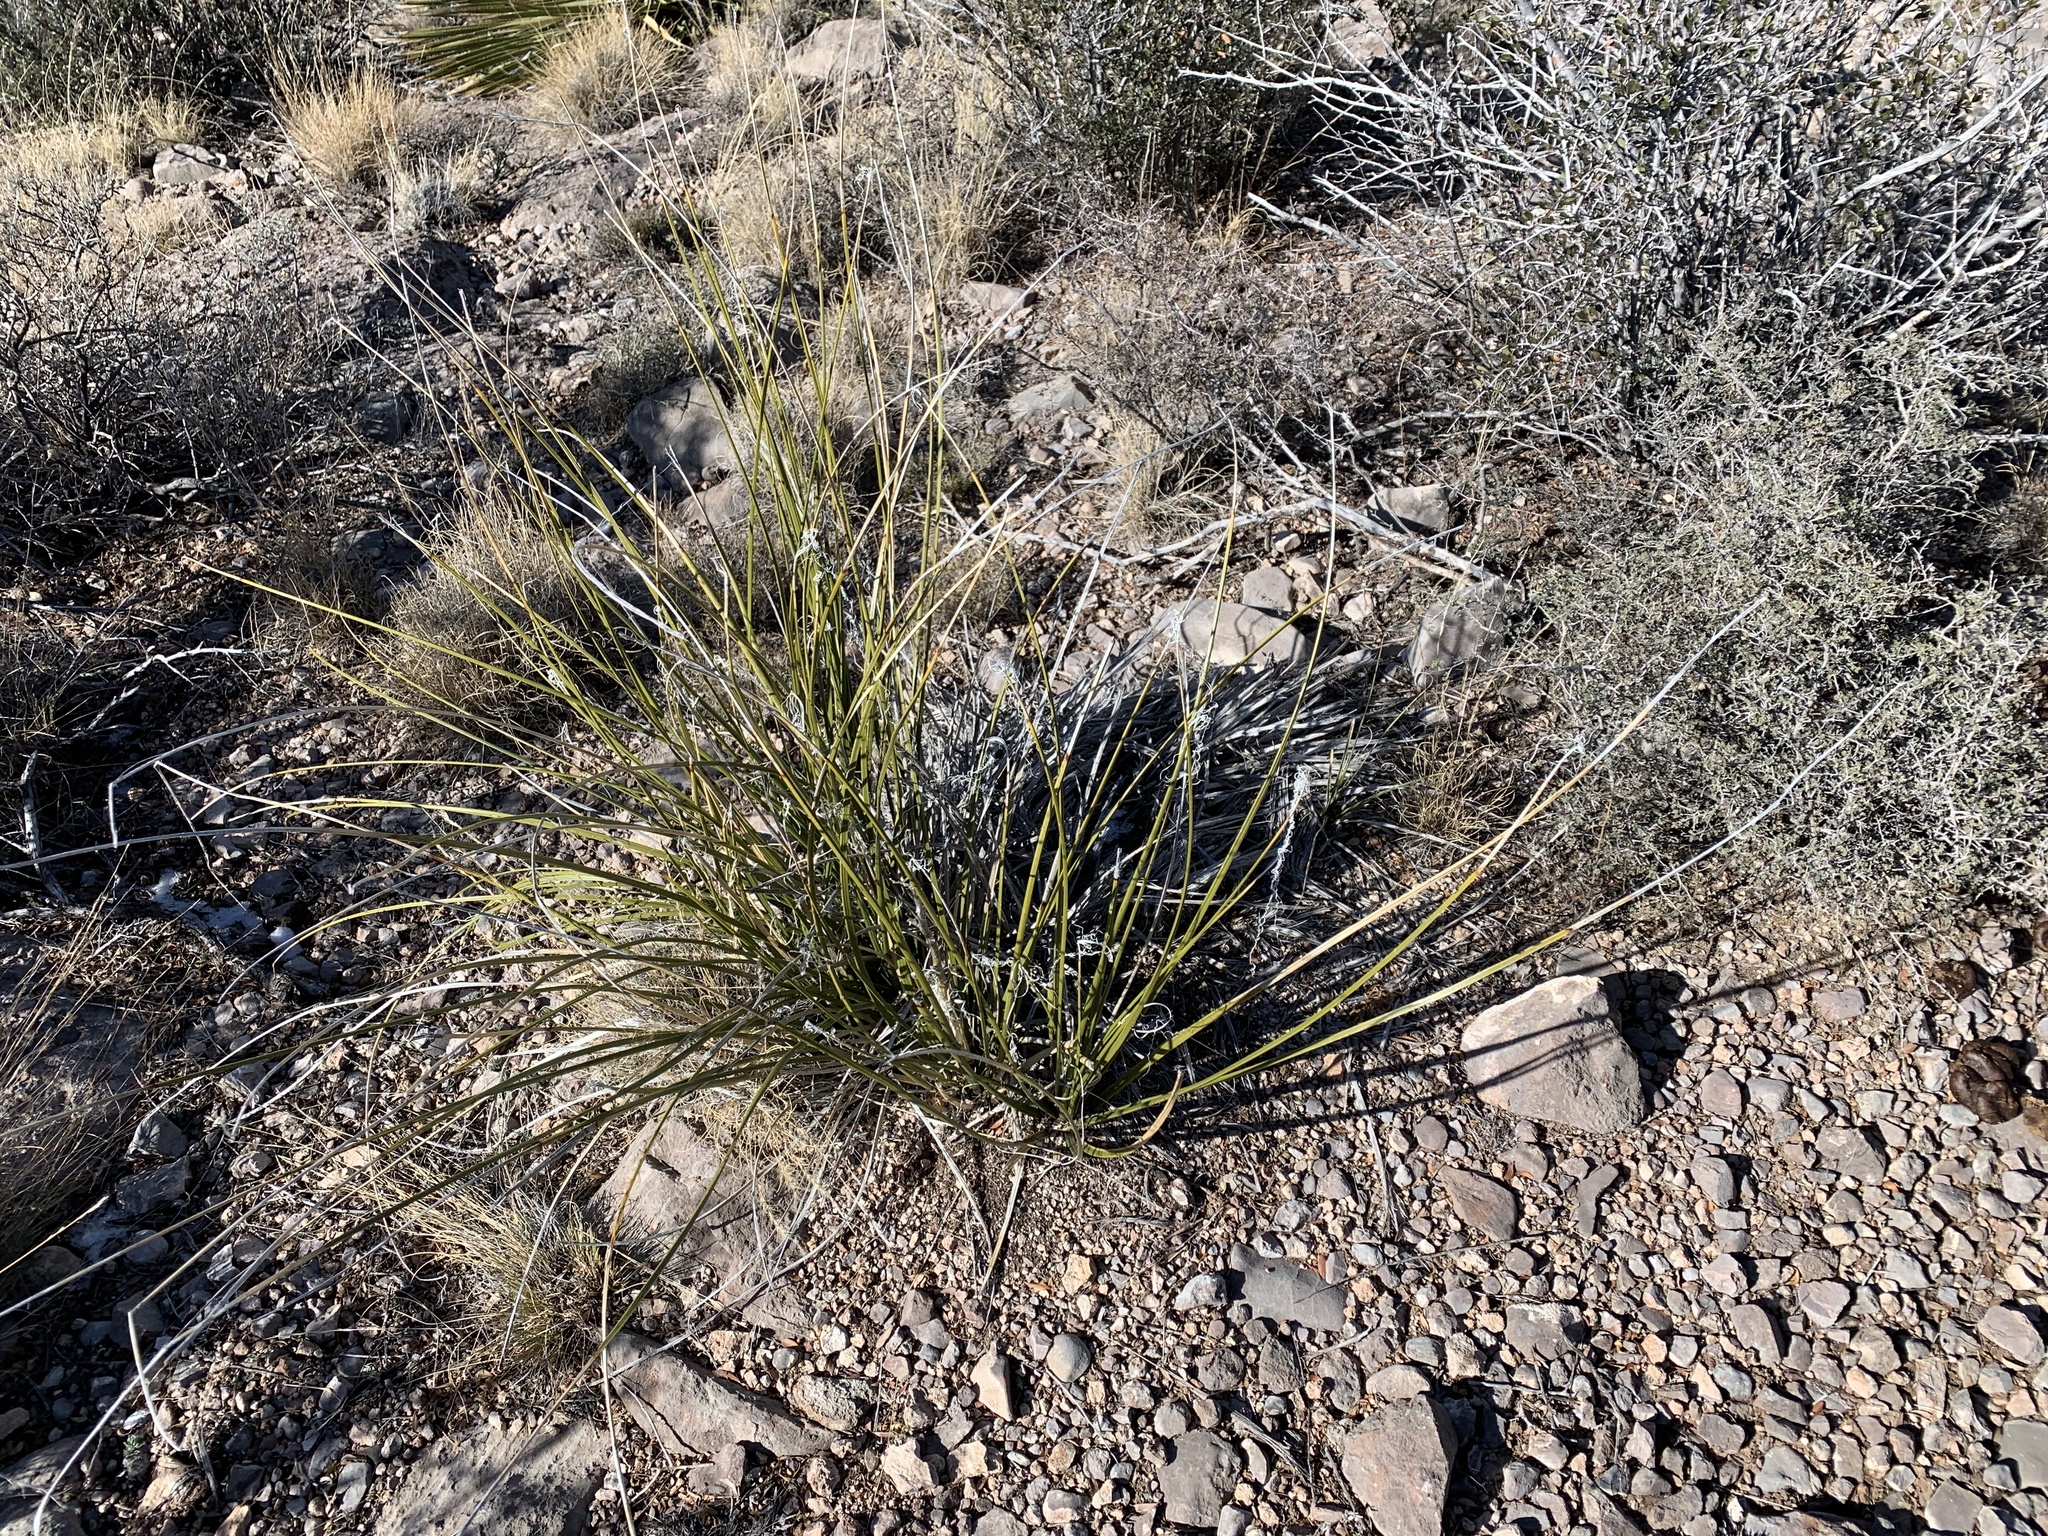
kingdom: Plantae
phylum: Tracheophyta
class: Liliopsida
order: Asparagales
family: Asparagaceae
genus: Nolina
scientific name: Nolina texana
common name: Texas sacahuiste
